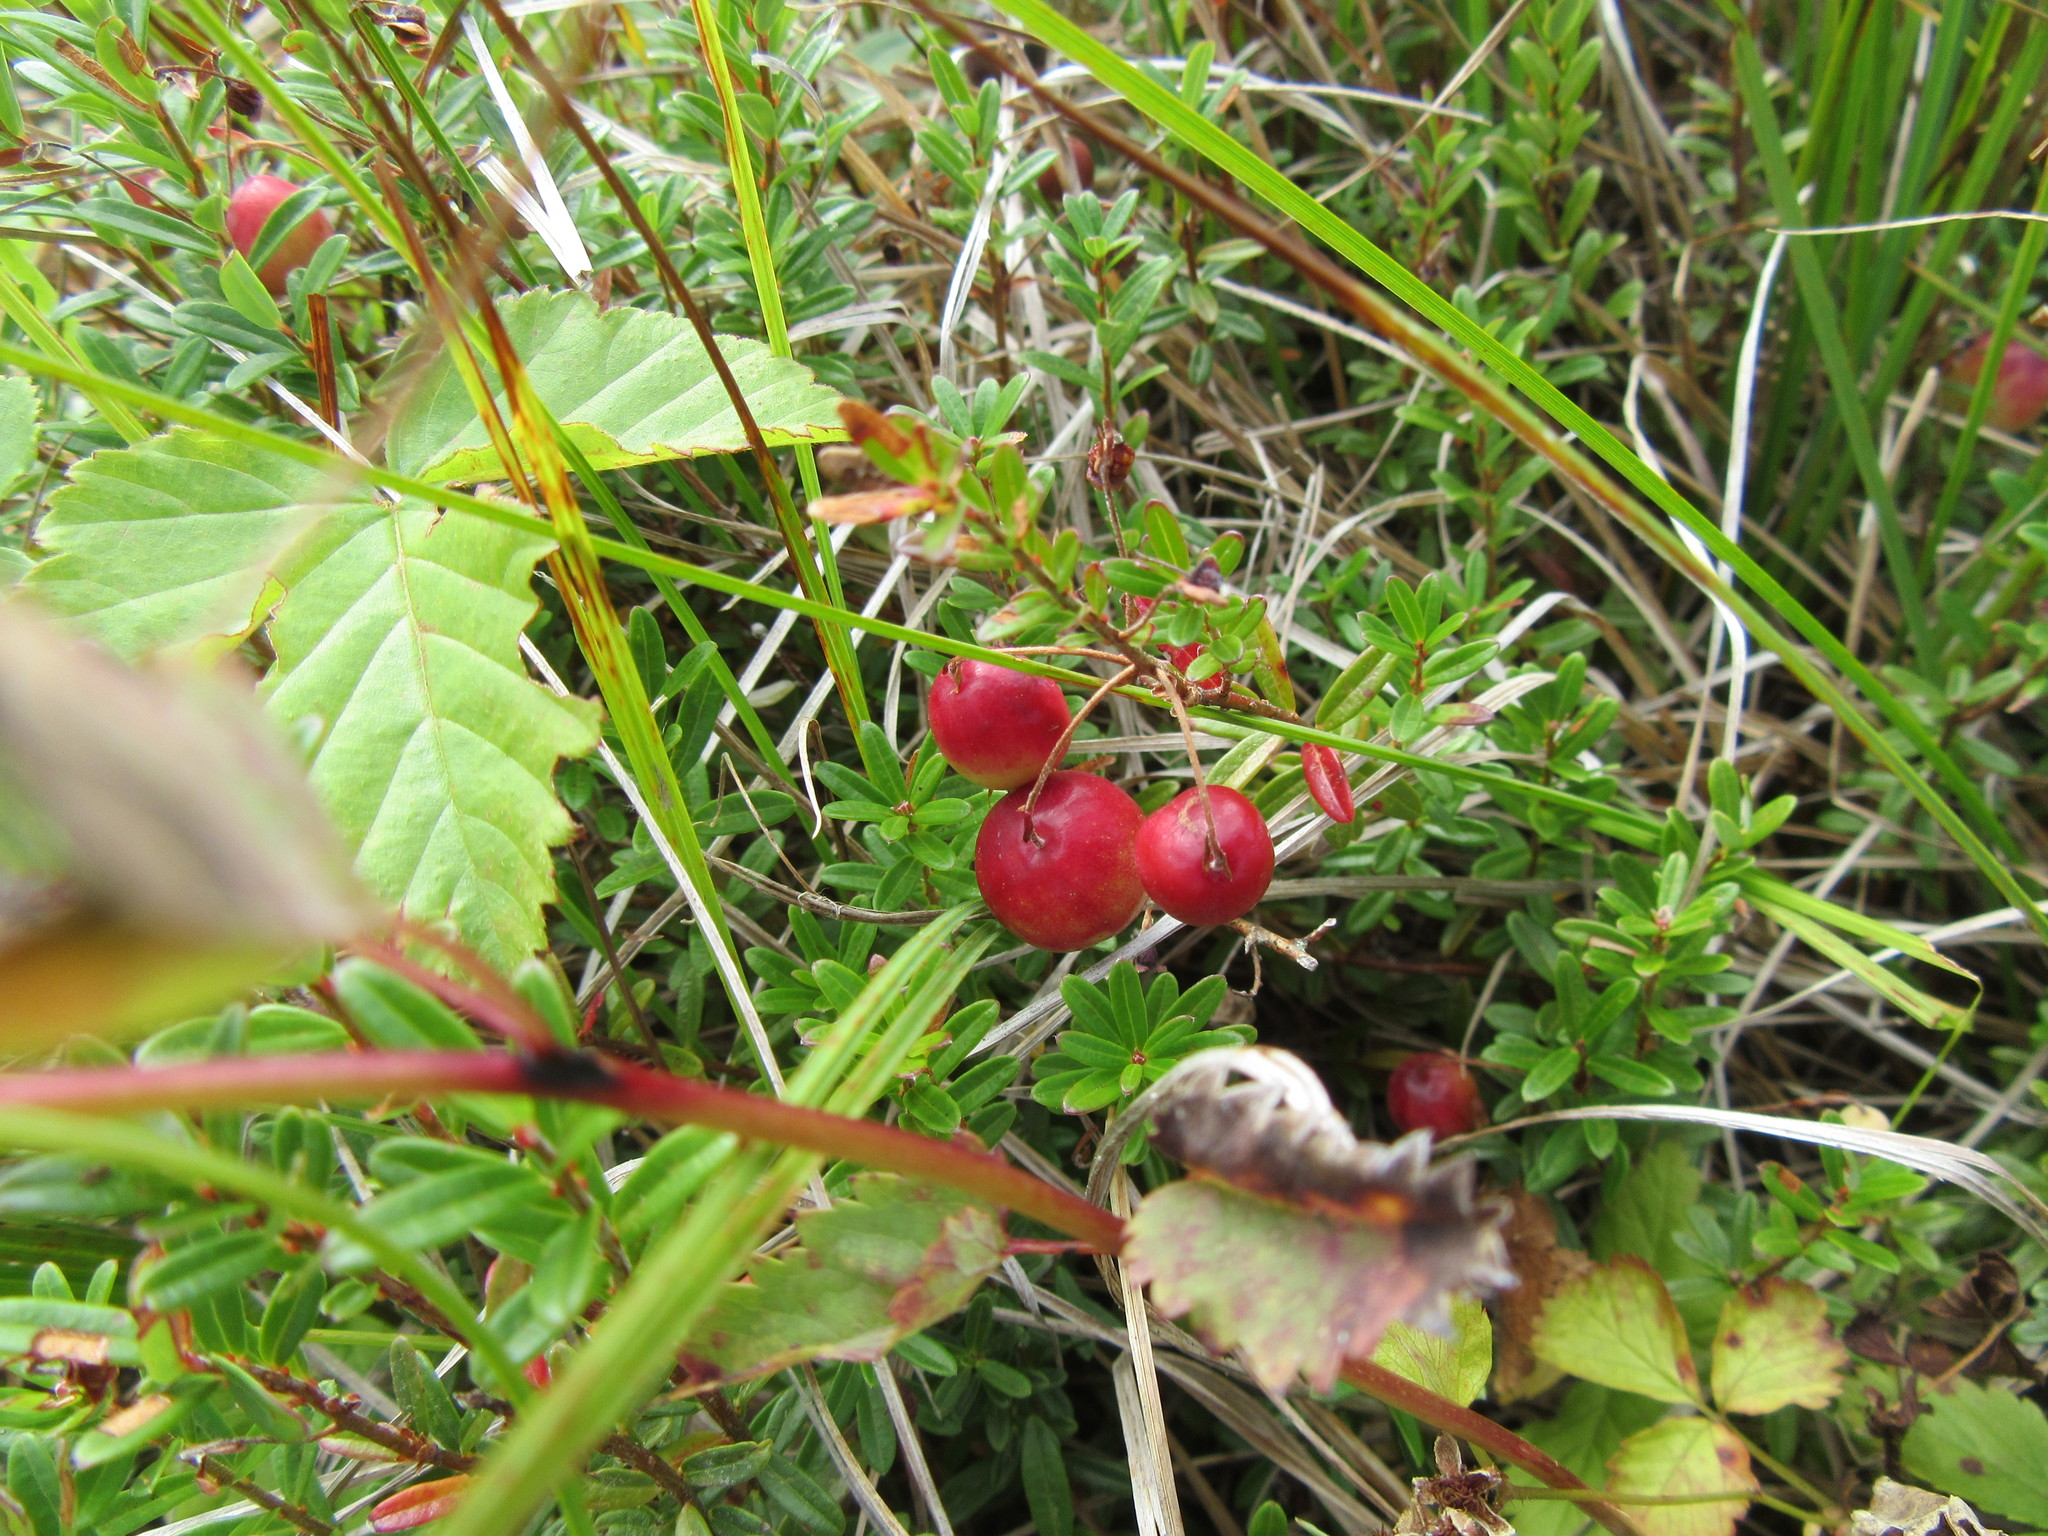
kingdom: Plantae
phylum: Tracheophyta
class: Magnoliopsida
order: Ericales
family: Ericaceae
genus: Vaccinium
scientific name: Vaccinium macrocarpon
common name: American cranberry
